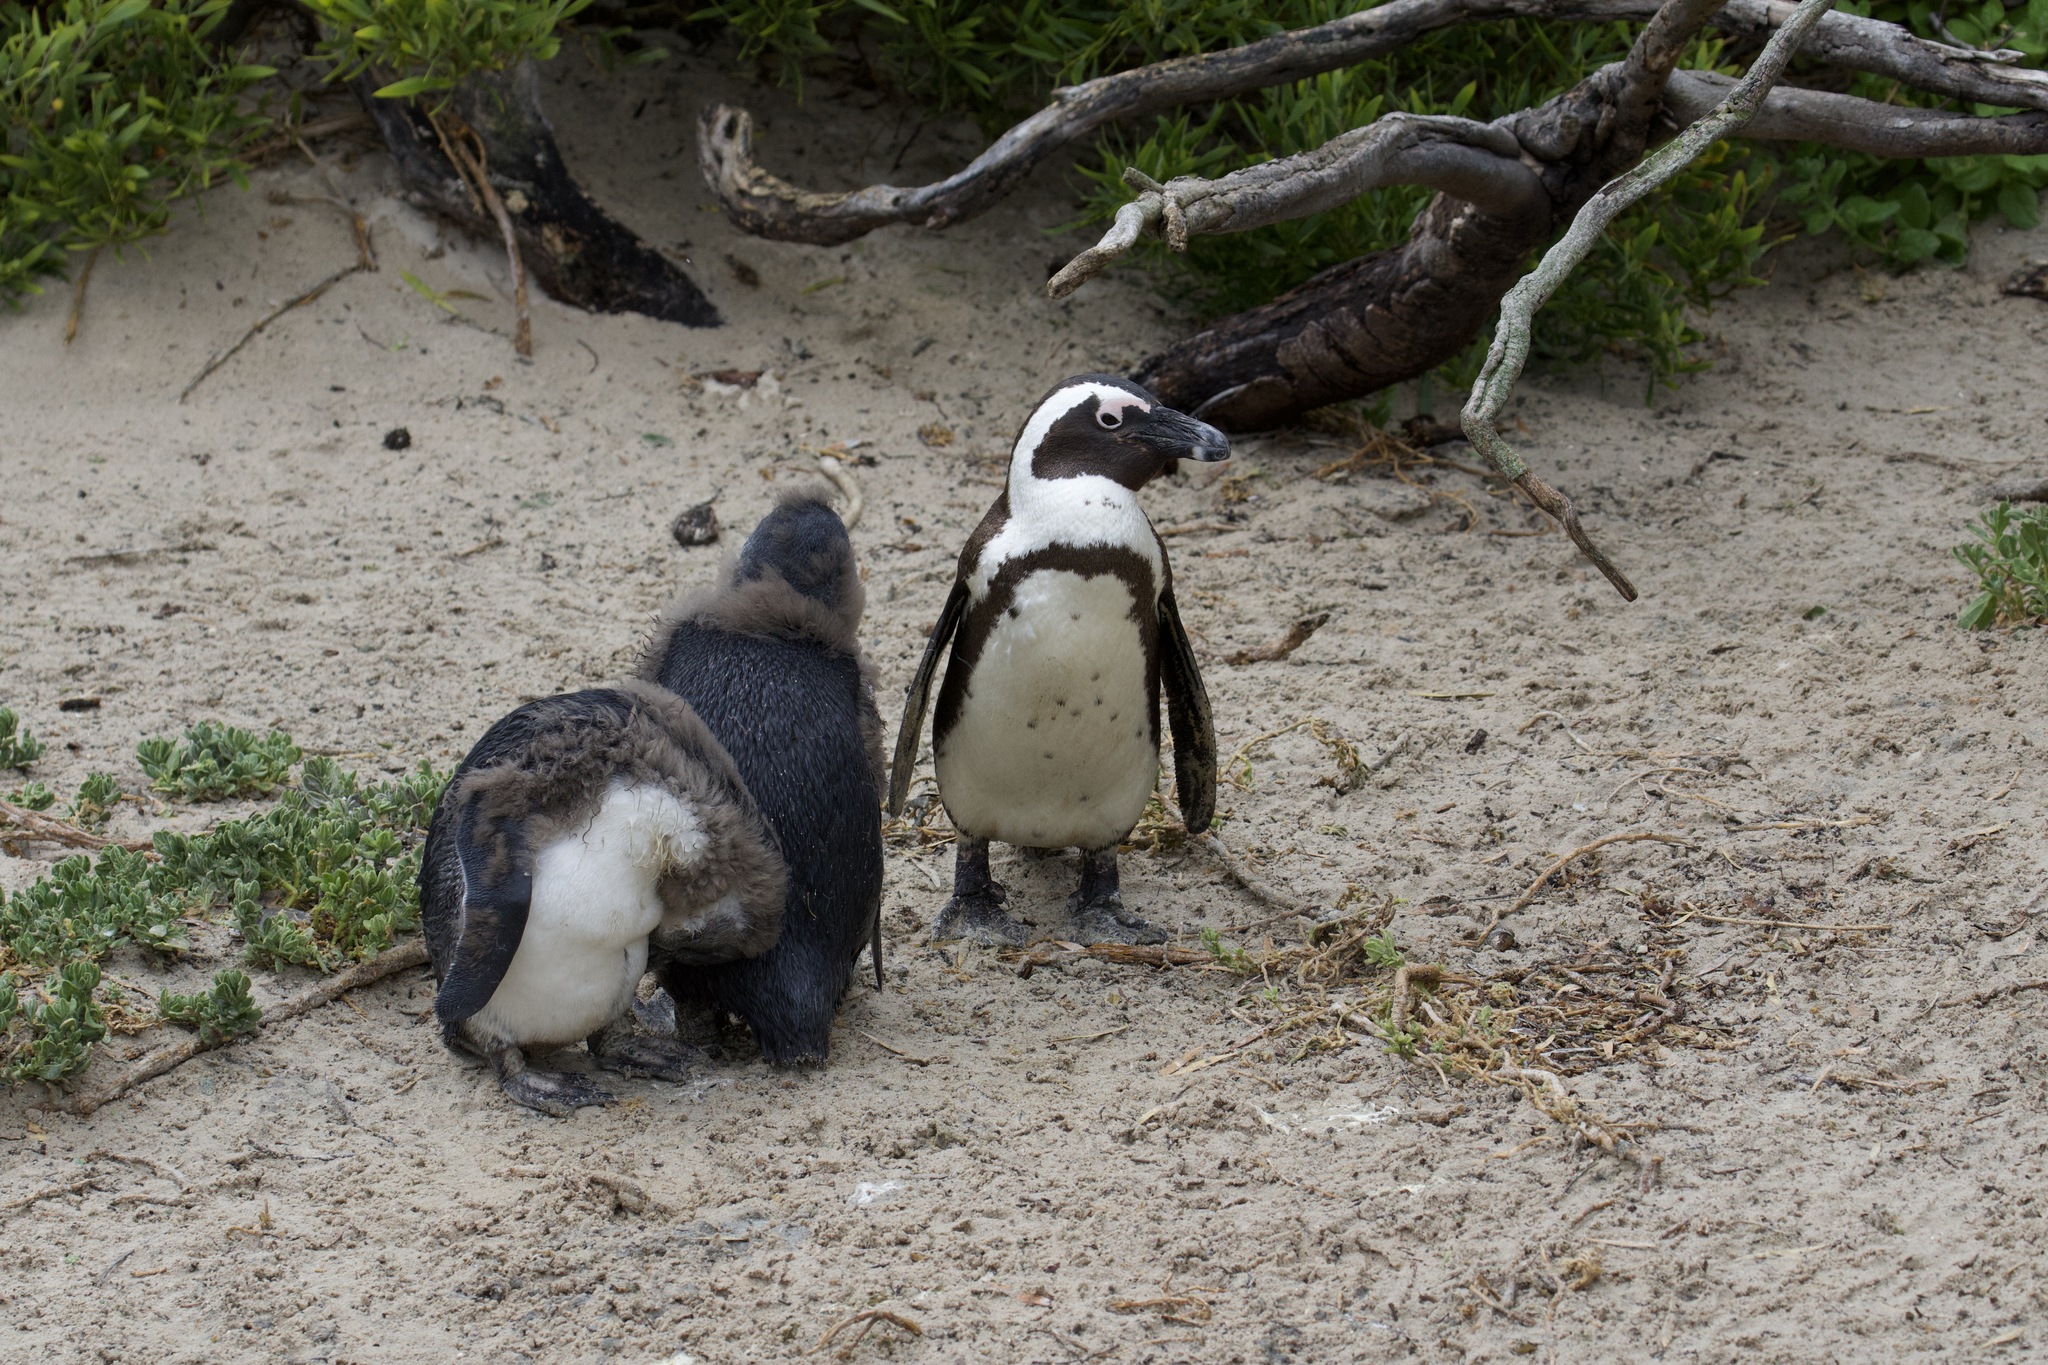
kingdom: Animalia
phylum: Chordata
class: Aves
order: Sphenisciformes
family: Spheniscidae
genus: Spheniscus
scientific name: Spheniscus demersus
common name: African penguin
